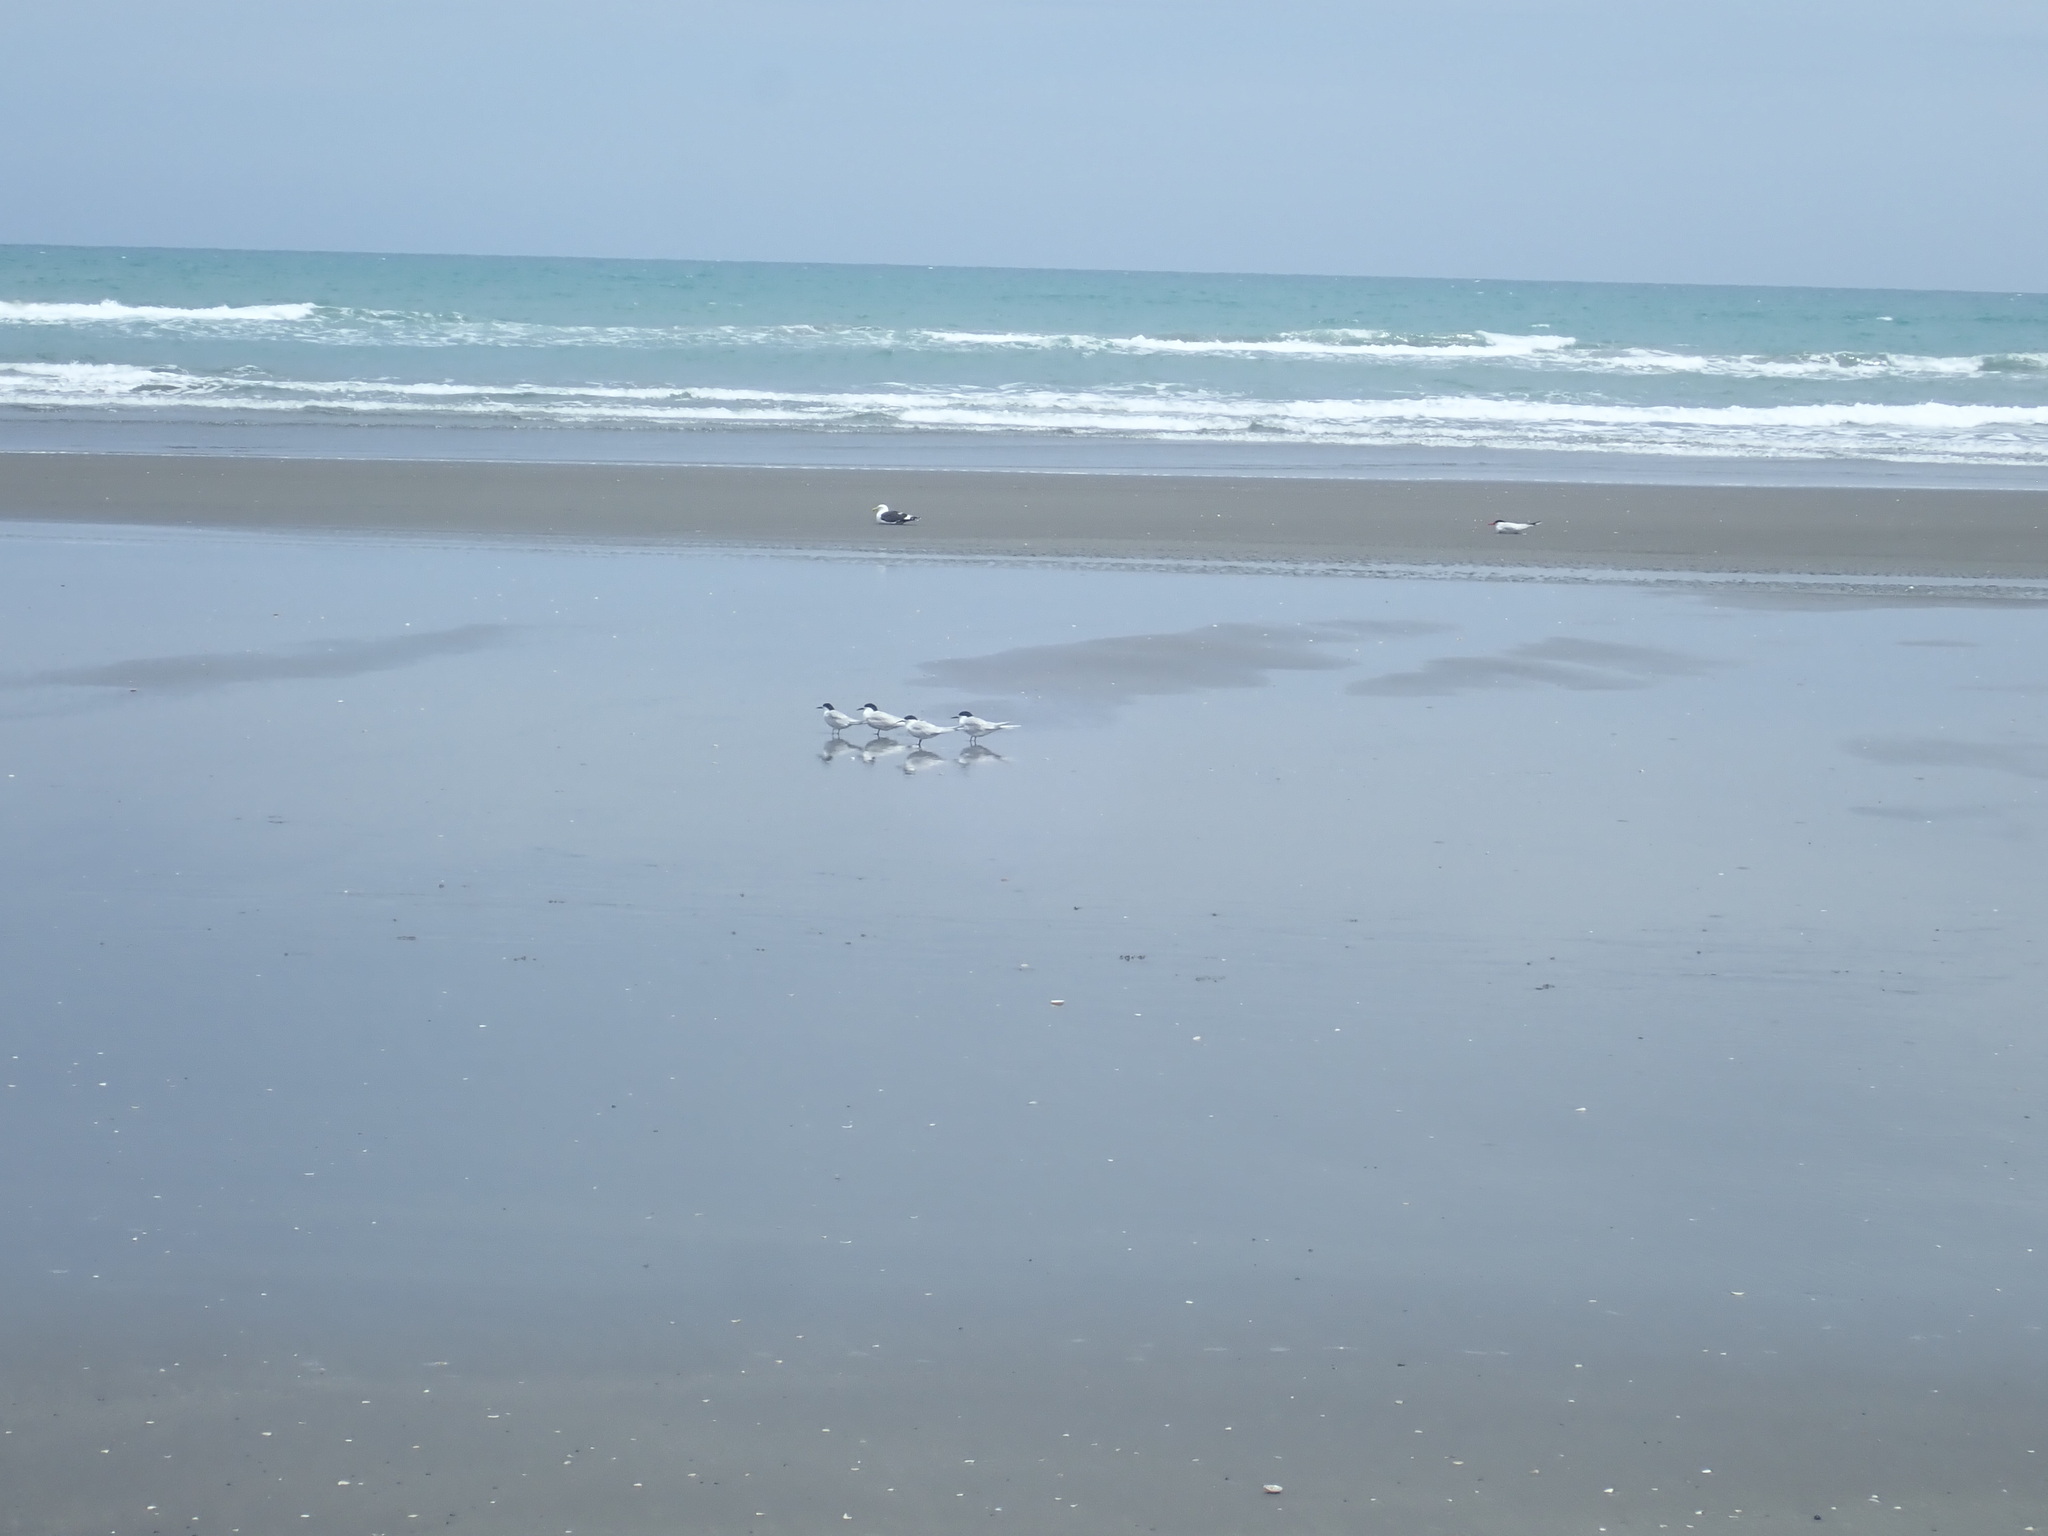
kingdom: Animalia
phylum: Chordata
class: Aves
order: Charadriiformes
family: Laridae
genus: Sterna
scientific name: Sterna striata
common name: White-fronted tern
